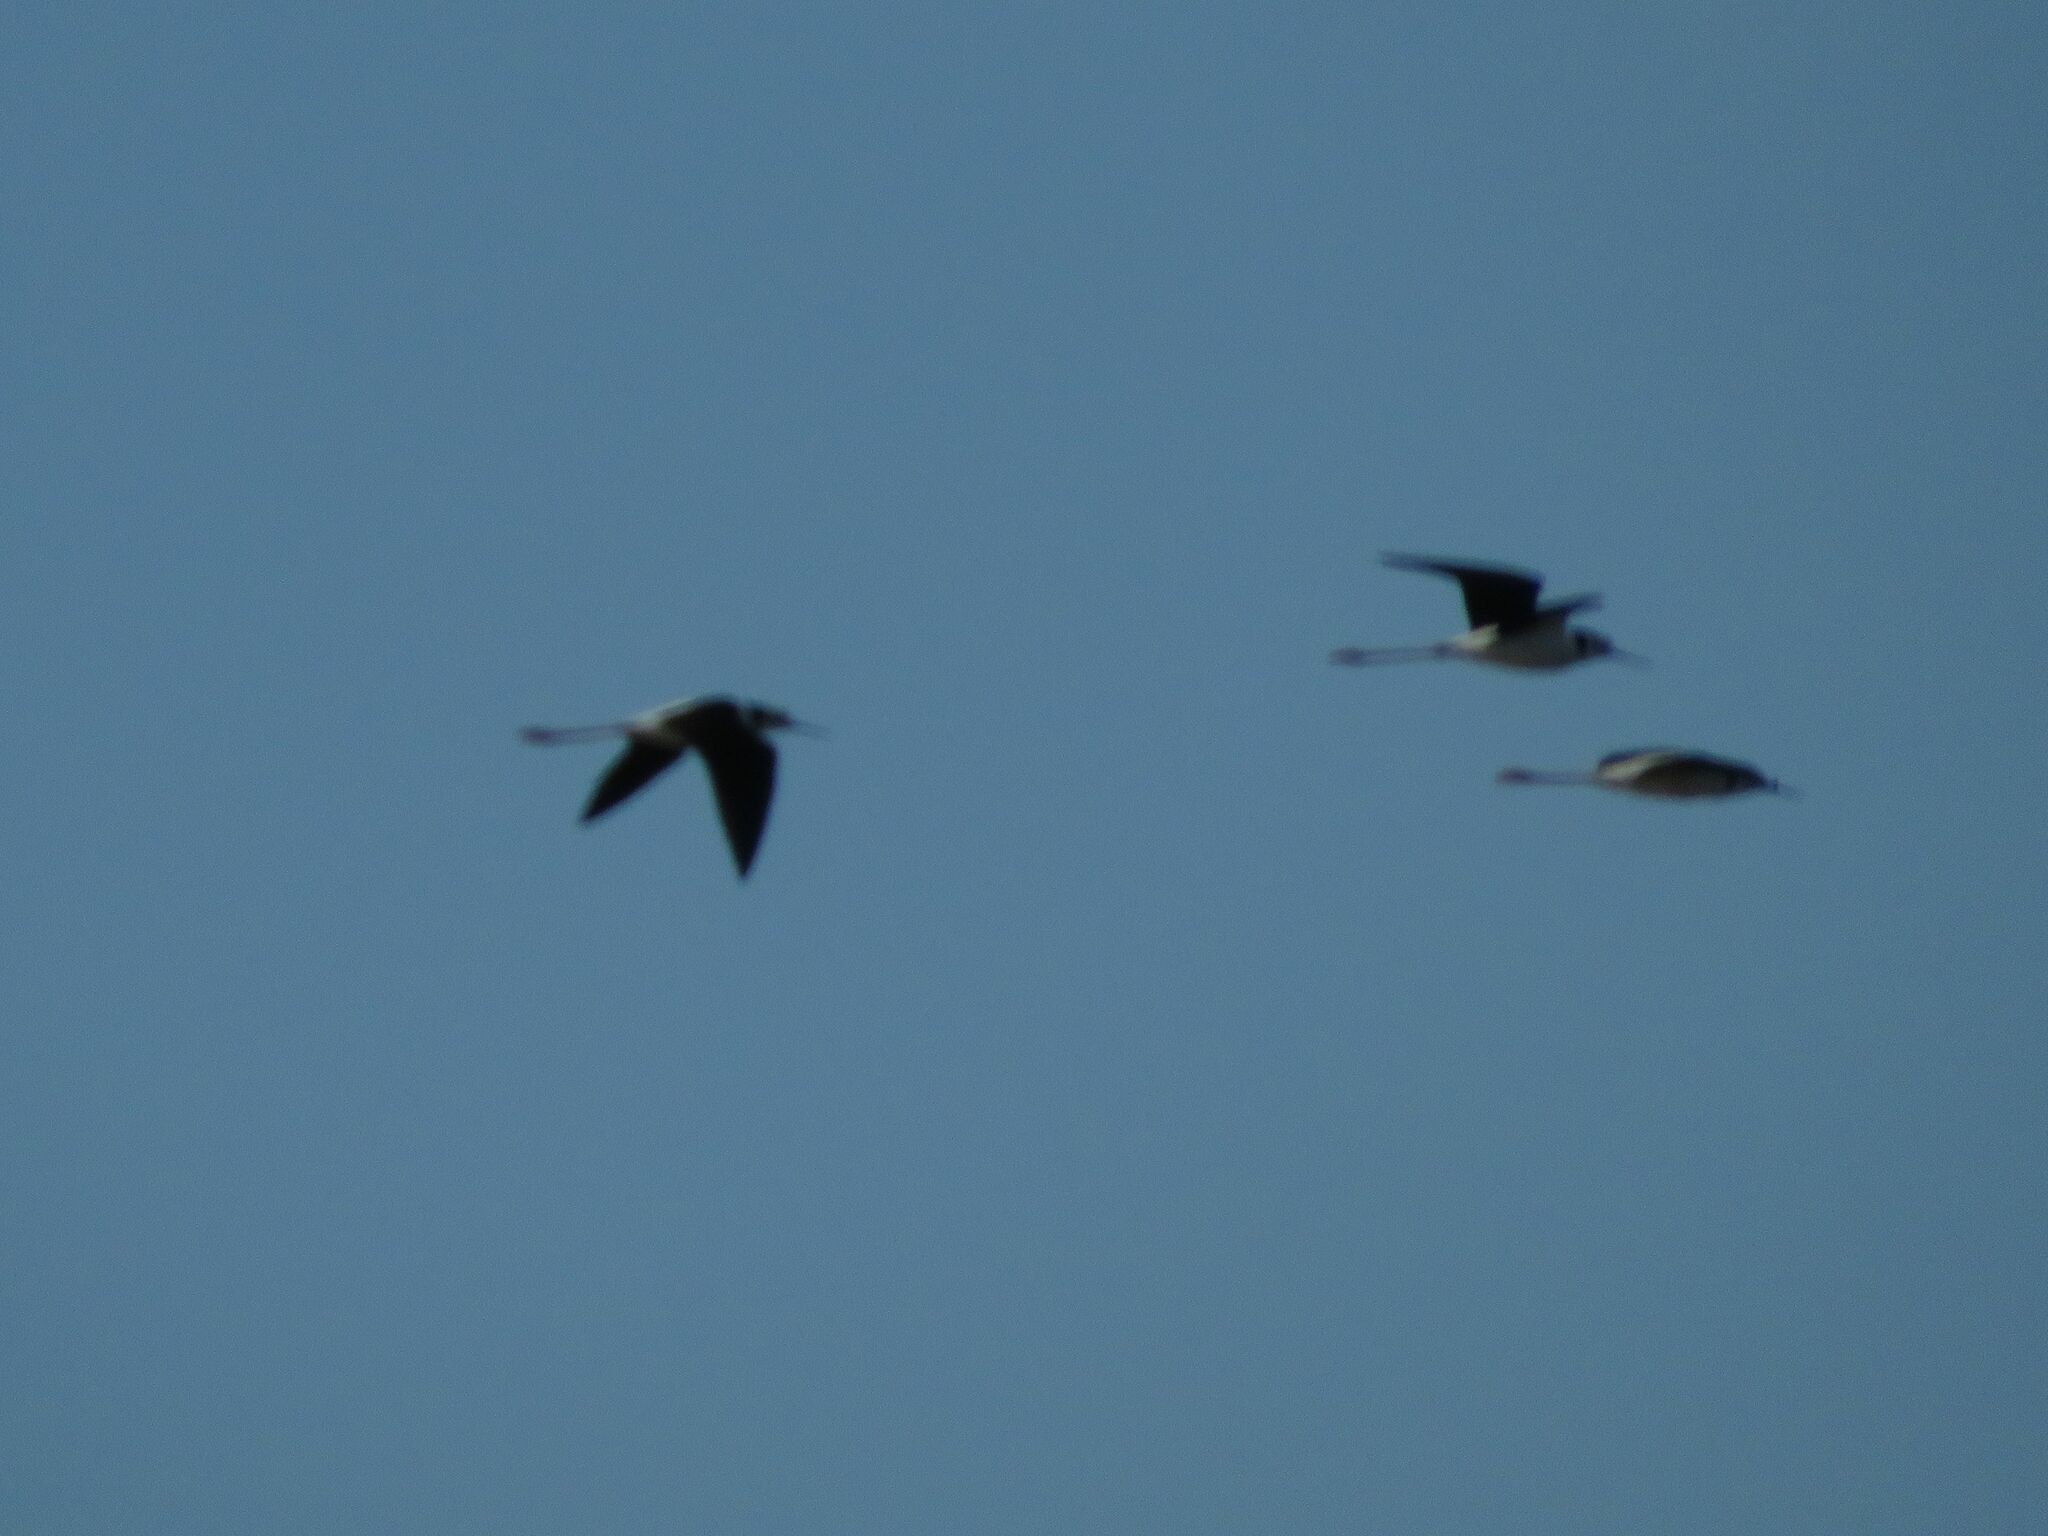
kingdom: Animalia
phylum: Chordata
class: Aves
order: Charadriiformes
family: Recurvirostridae
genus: Himantopus
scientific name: Himantopus mexicanus
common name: Black-necked stilt
